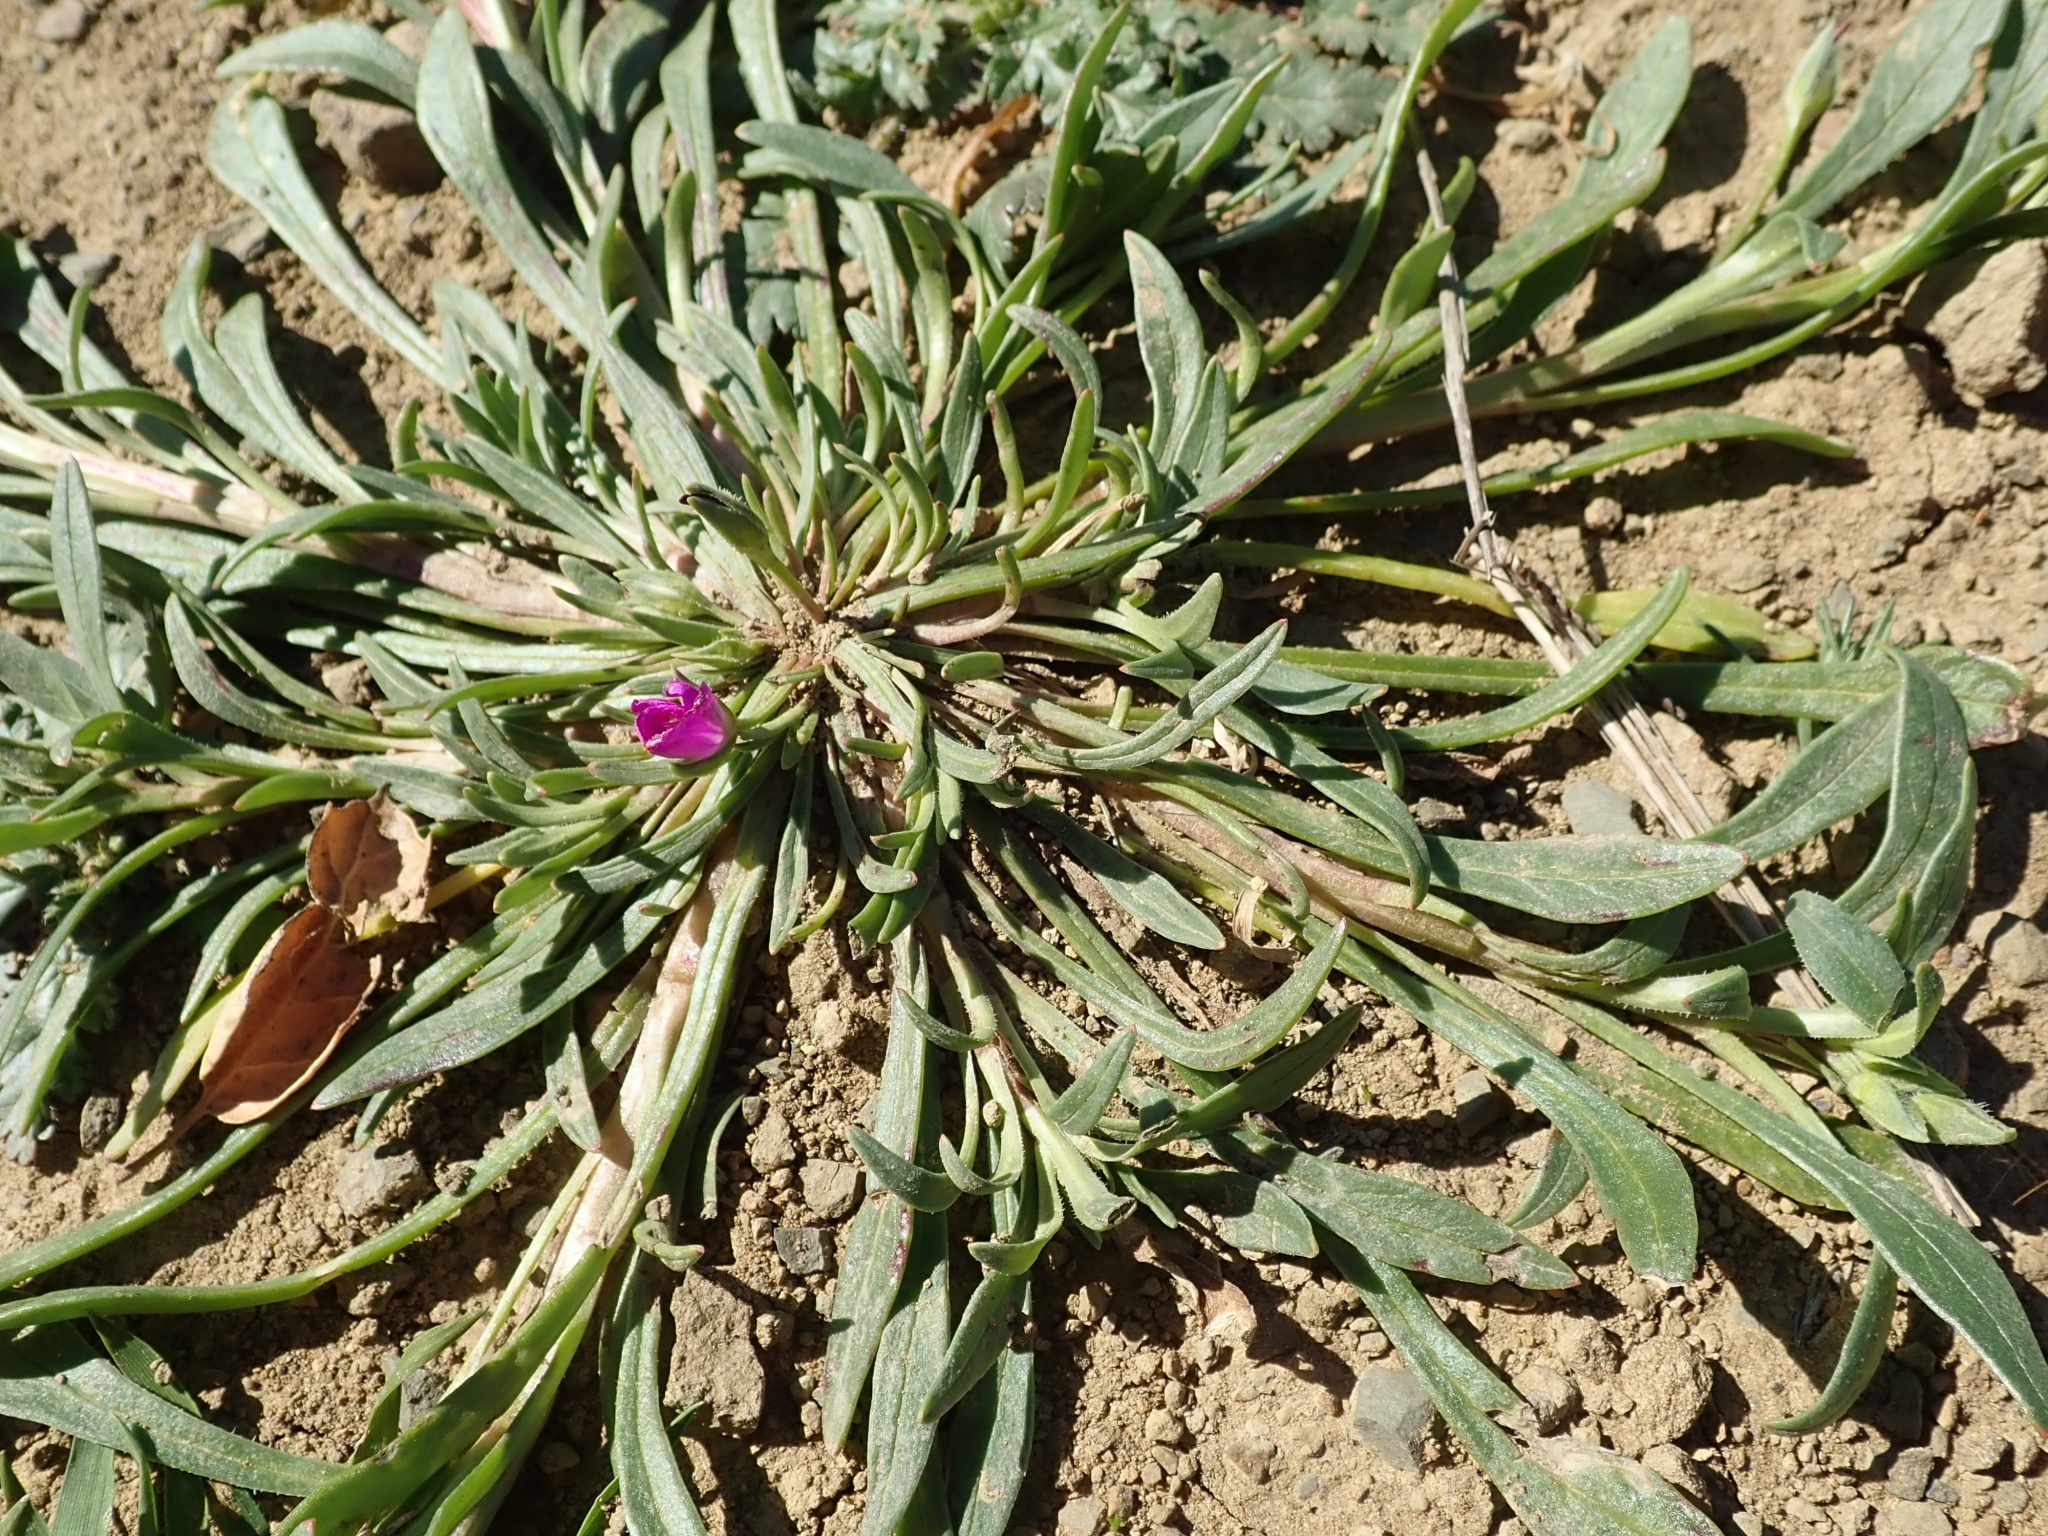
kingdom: Plantae
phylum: Tracheophyta
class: Magnoliopsida
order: Caryophyllales
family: Montiaceae
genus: Calandrinia
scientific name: Calandrinia menziesii
